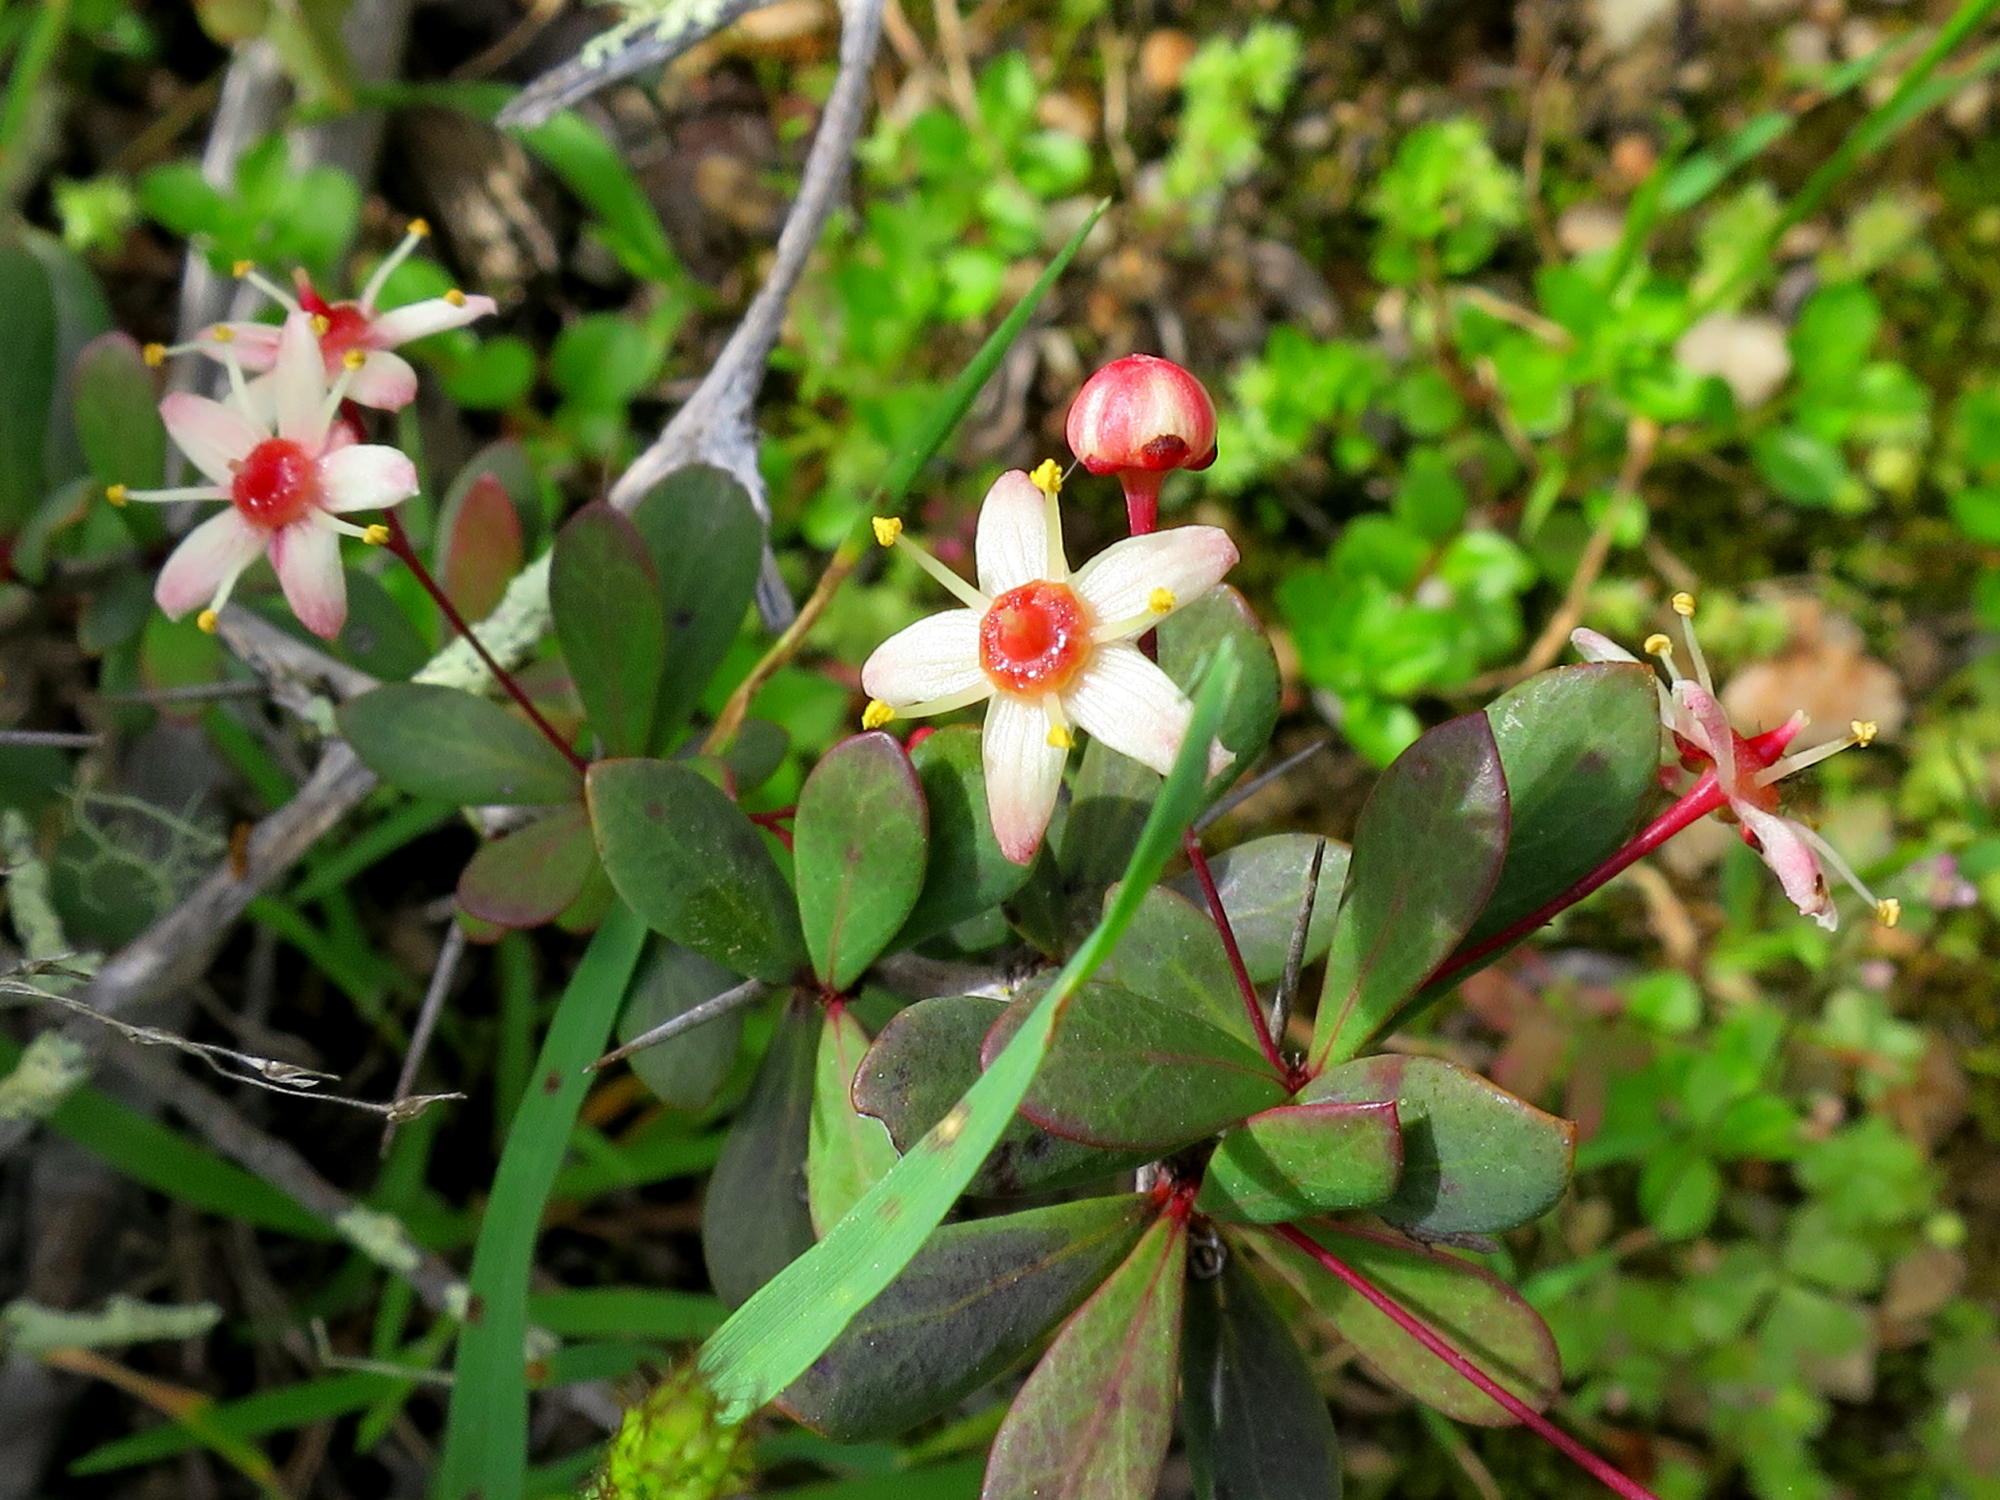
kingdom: Plantae
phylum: Tracheophyta
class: Magnoliopsida
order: Celastrales
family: Celastraceae
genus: Putterlickia
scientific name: Putterlickia pyracantha
